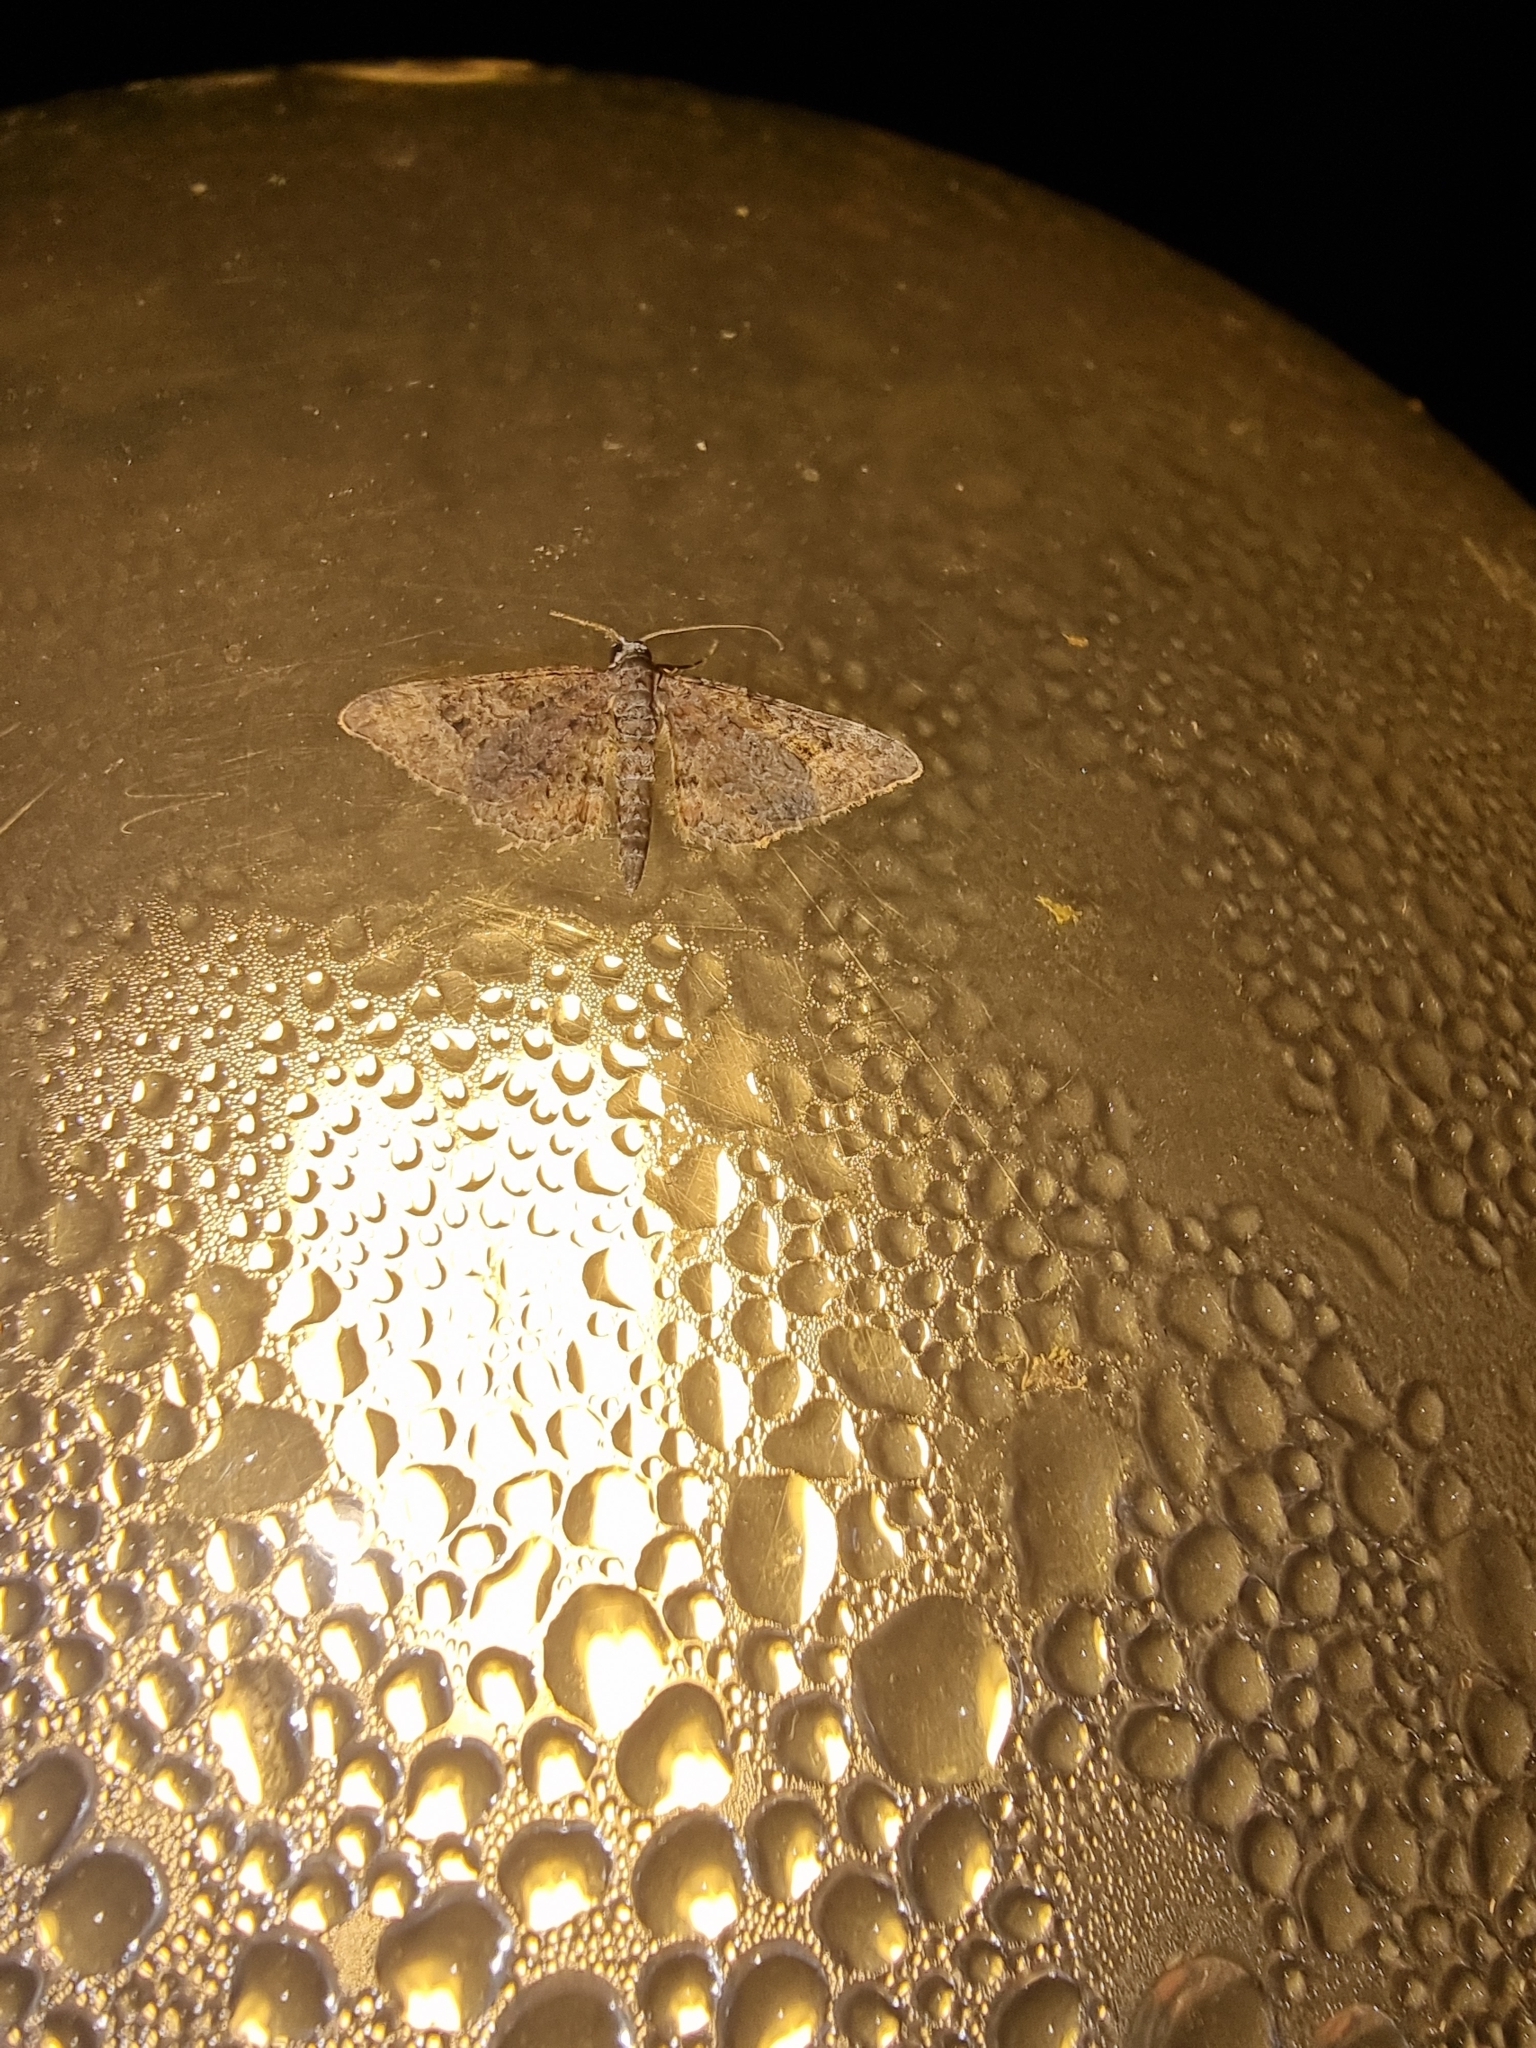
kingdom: Animalia
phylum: Arthropoda
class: Insecta
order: Lepidoptera
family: Geometridae
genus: Gymnoscelis
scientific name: Gymnoscelis rufifasciata
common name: Double-striped pug
